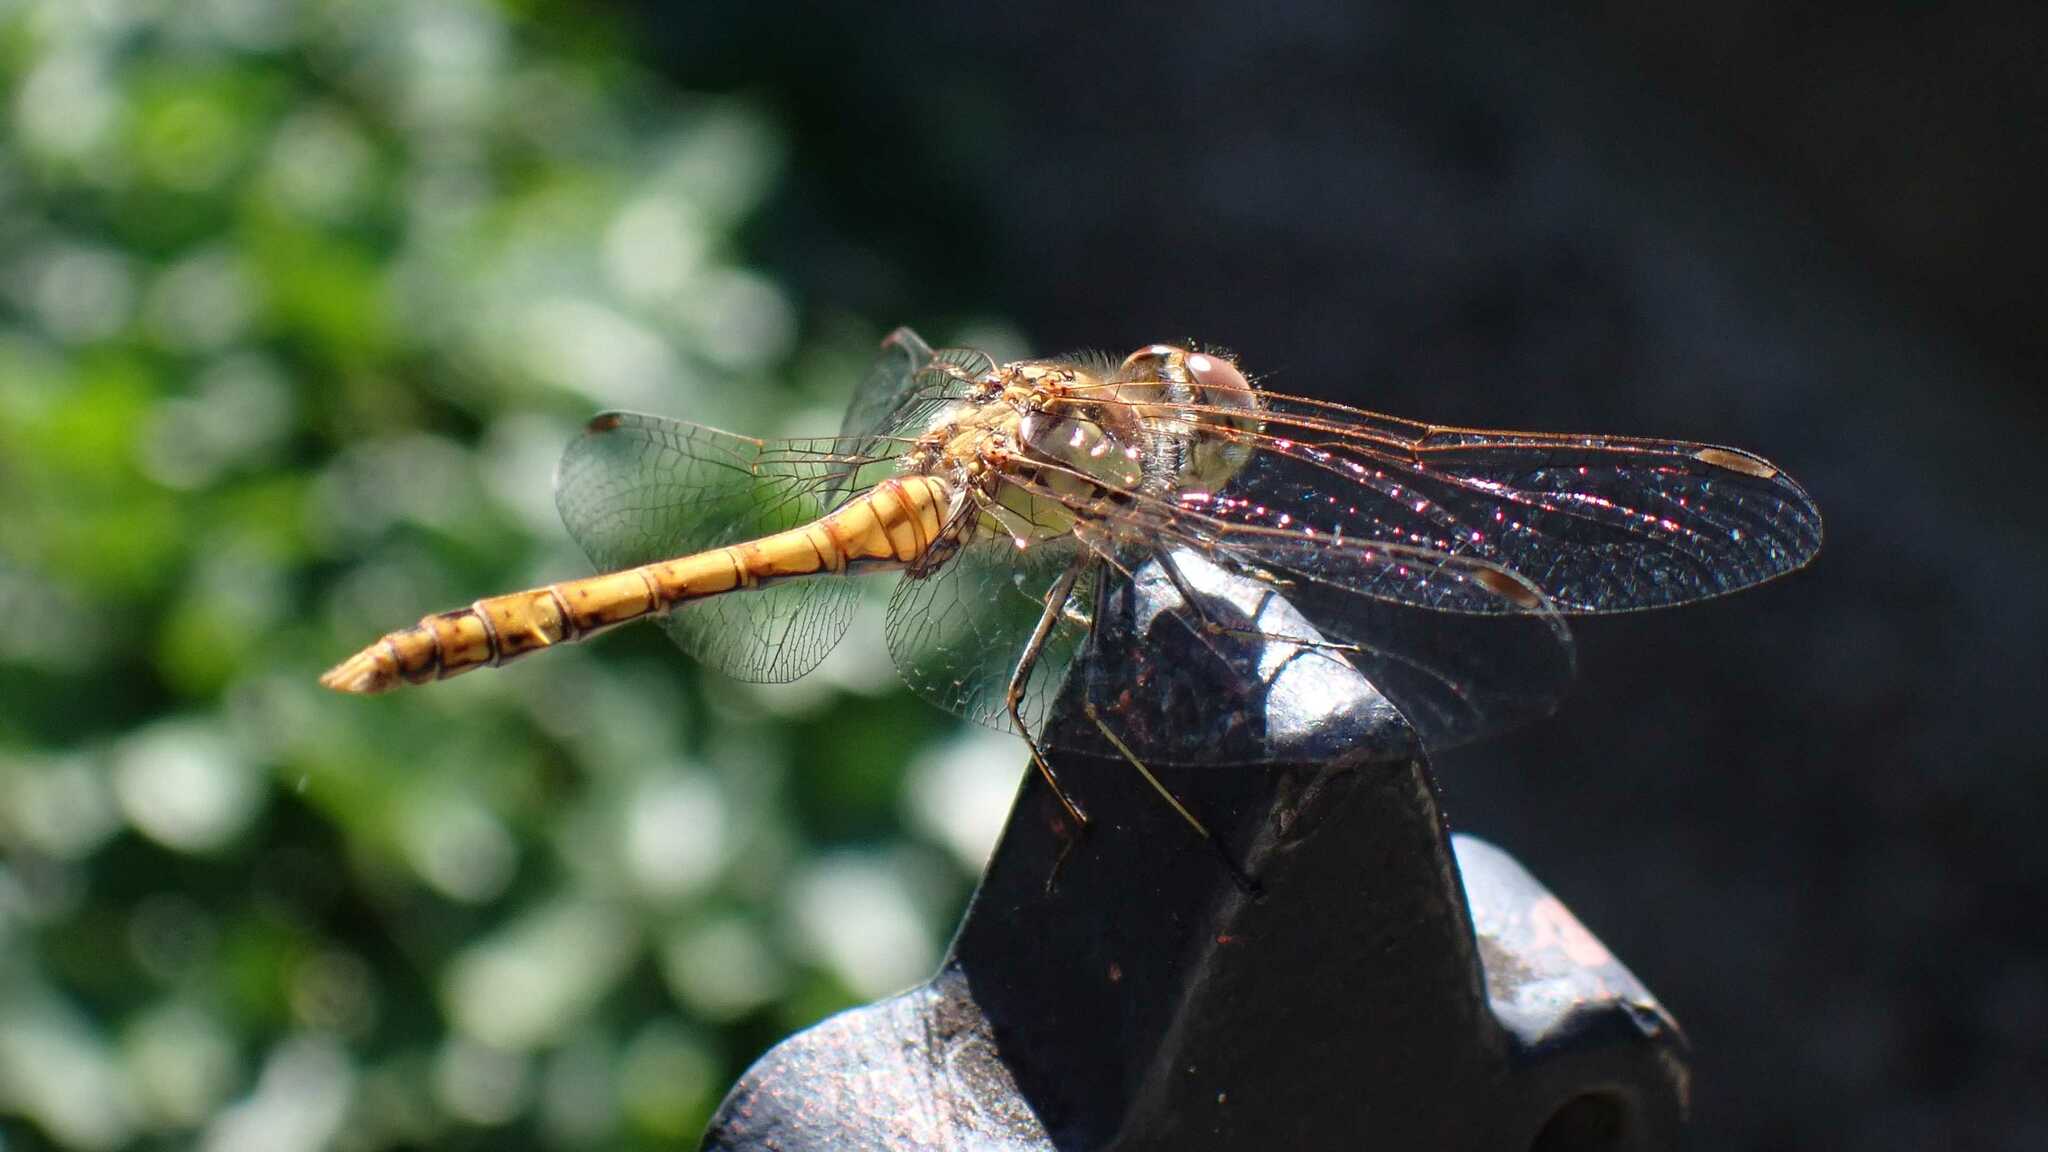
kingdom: Animalia
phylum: Arthropoda
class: Insecta
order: Odonata
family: Libellulidae
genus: Sympetrum
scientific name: Sympetrum striolatum
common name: Common darter
